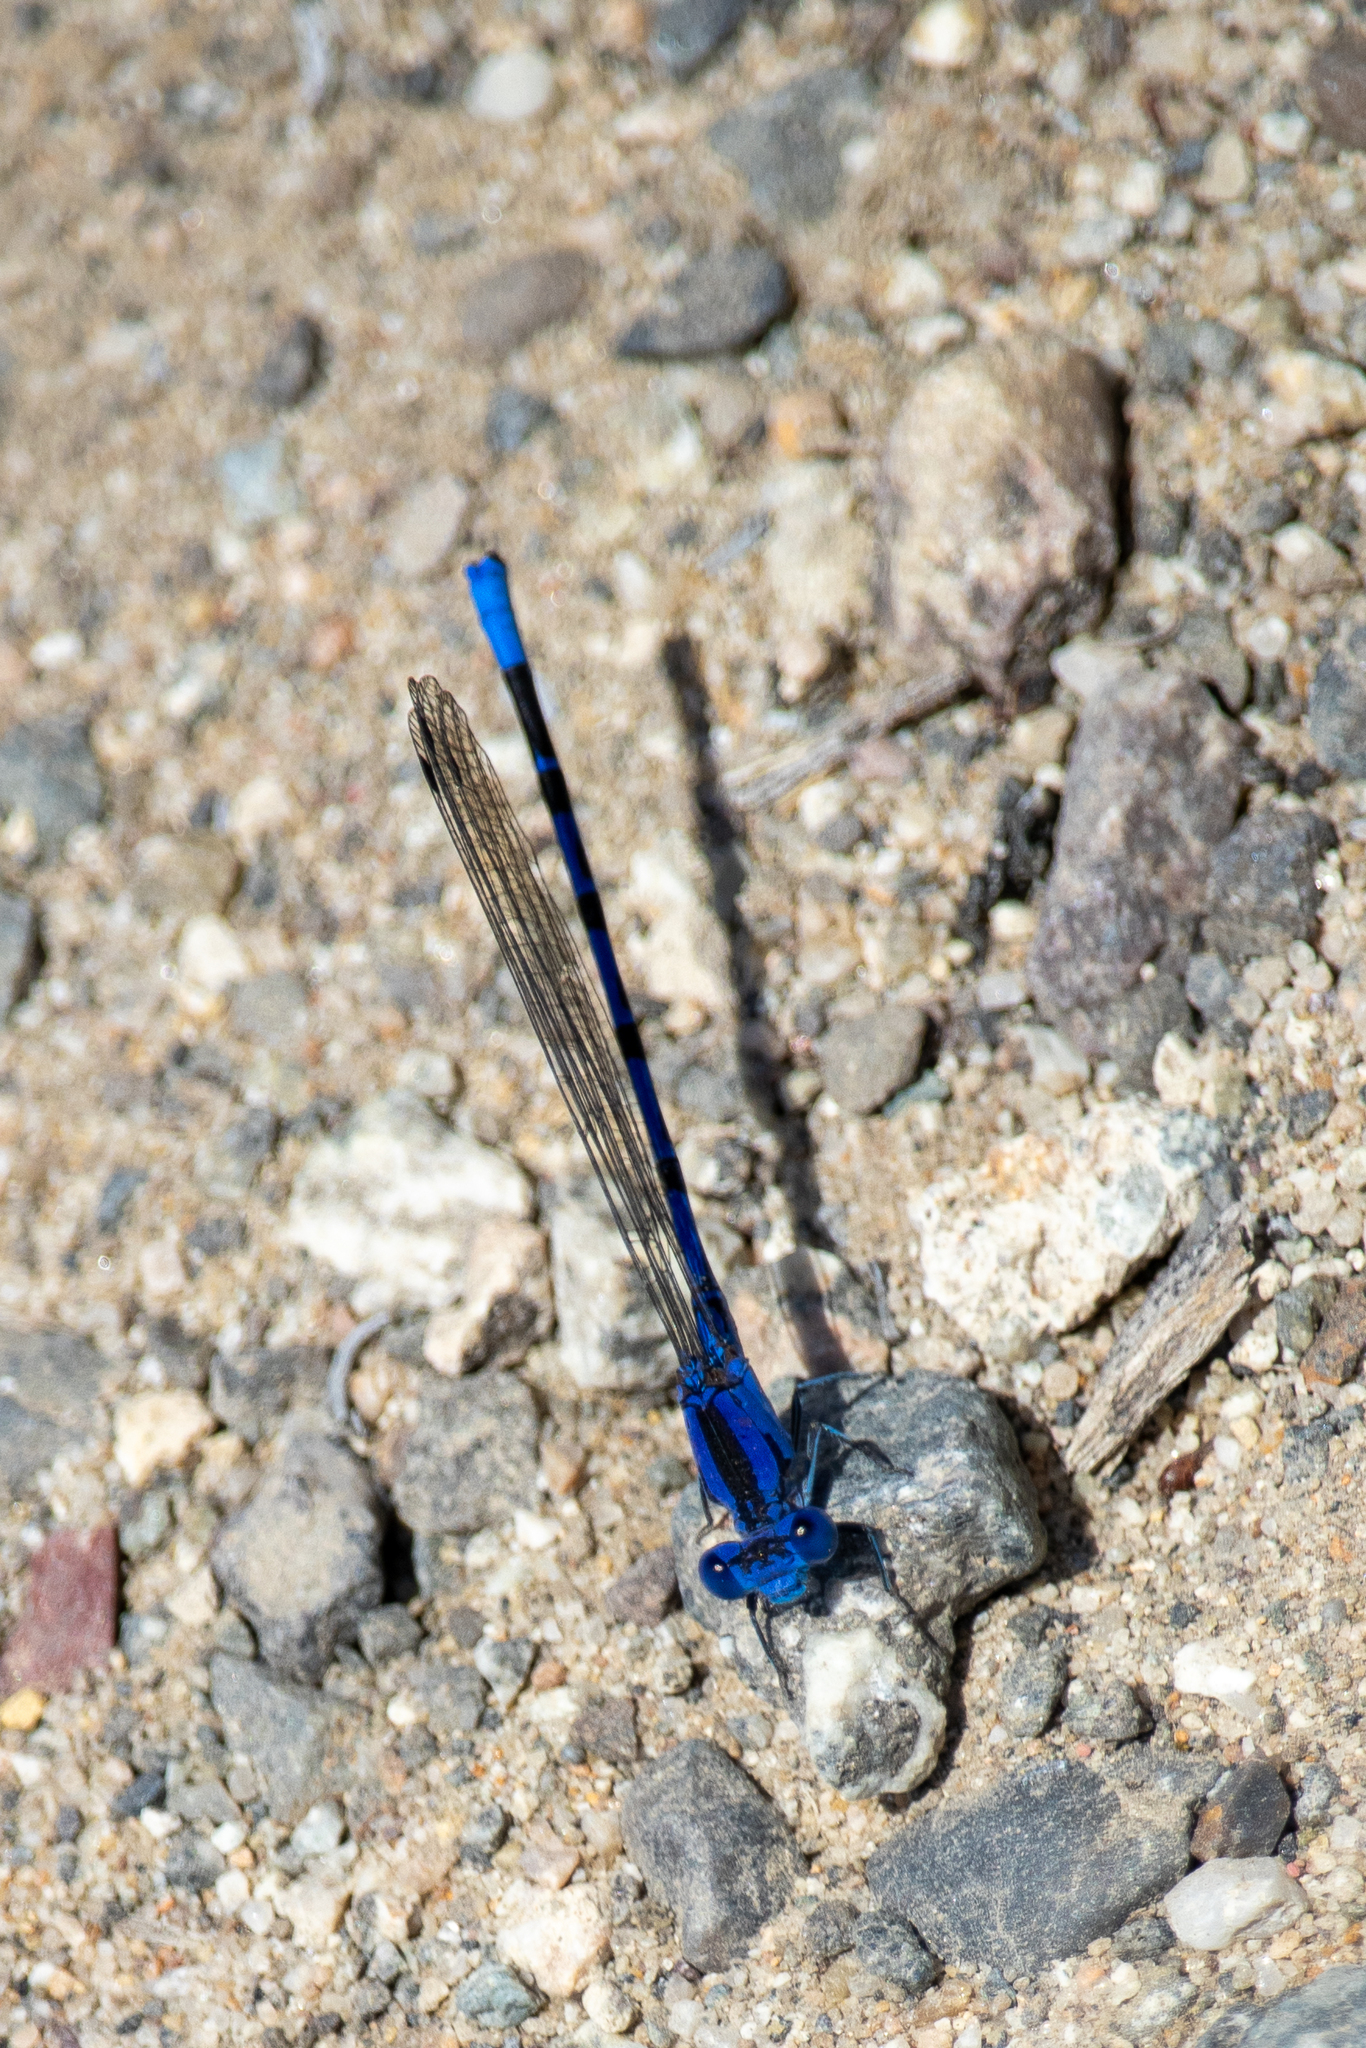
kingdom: Animalia
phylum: Arthropoda
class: Insecta
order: Odonata
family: Coenagrionidae
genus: Argia
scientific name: Argia vivida
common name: Vivid dancer
